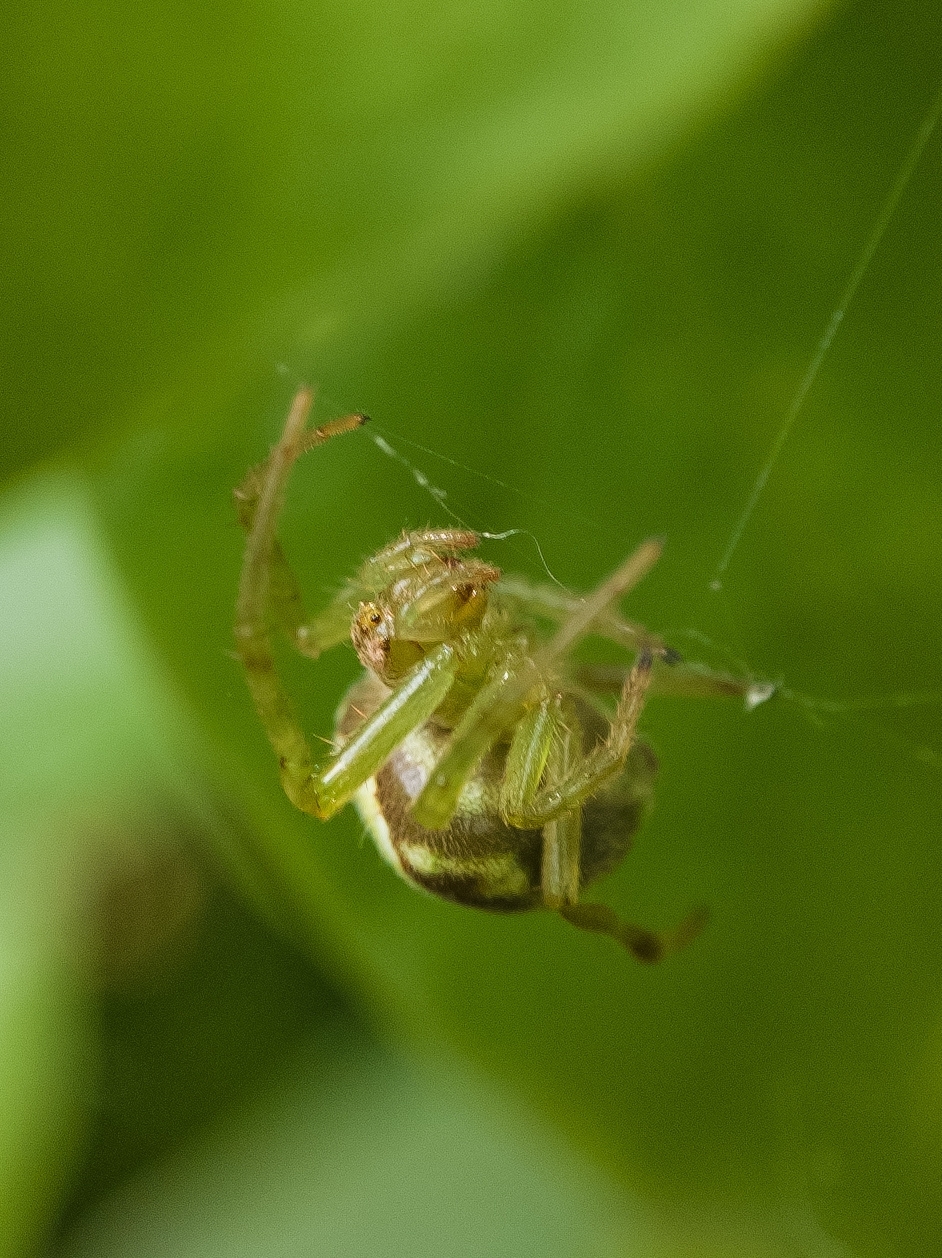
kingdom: Animalia
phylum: Arthropoda
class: Arachnida
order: Araneae
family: Araneidae
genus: Araneus
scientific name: Araneus unanimus
